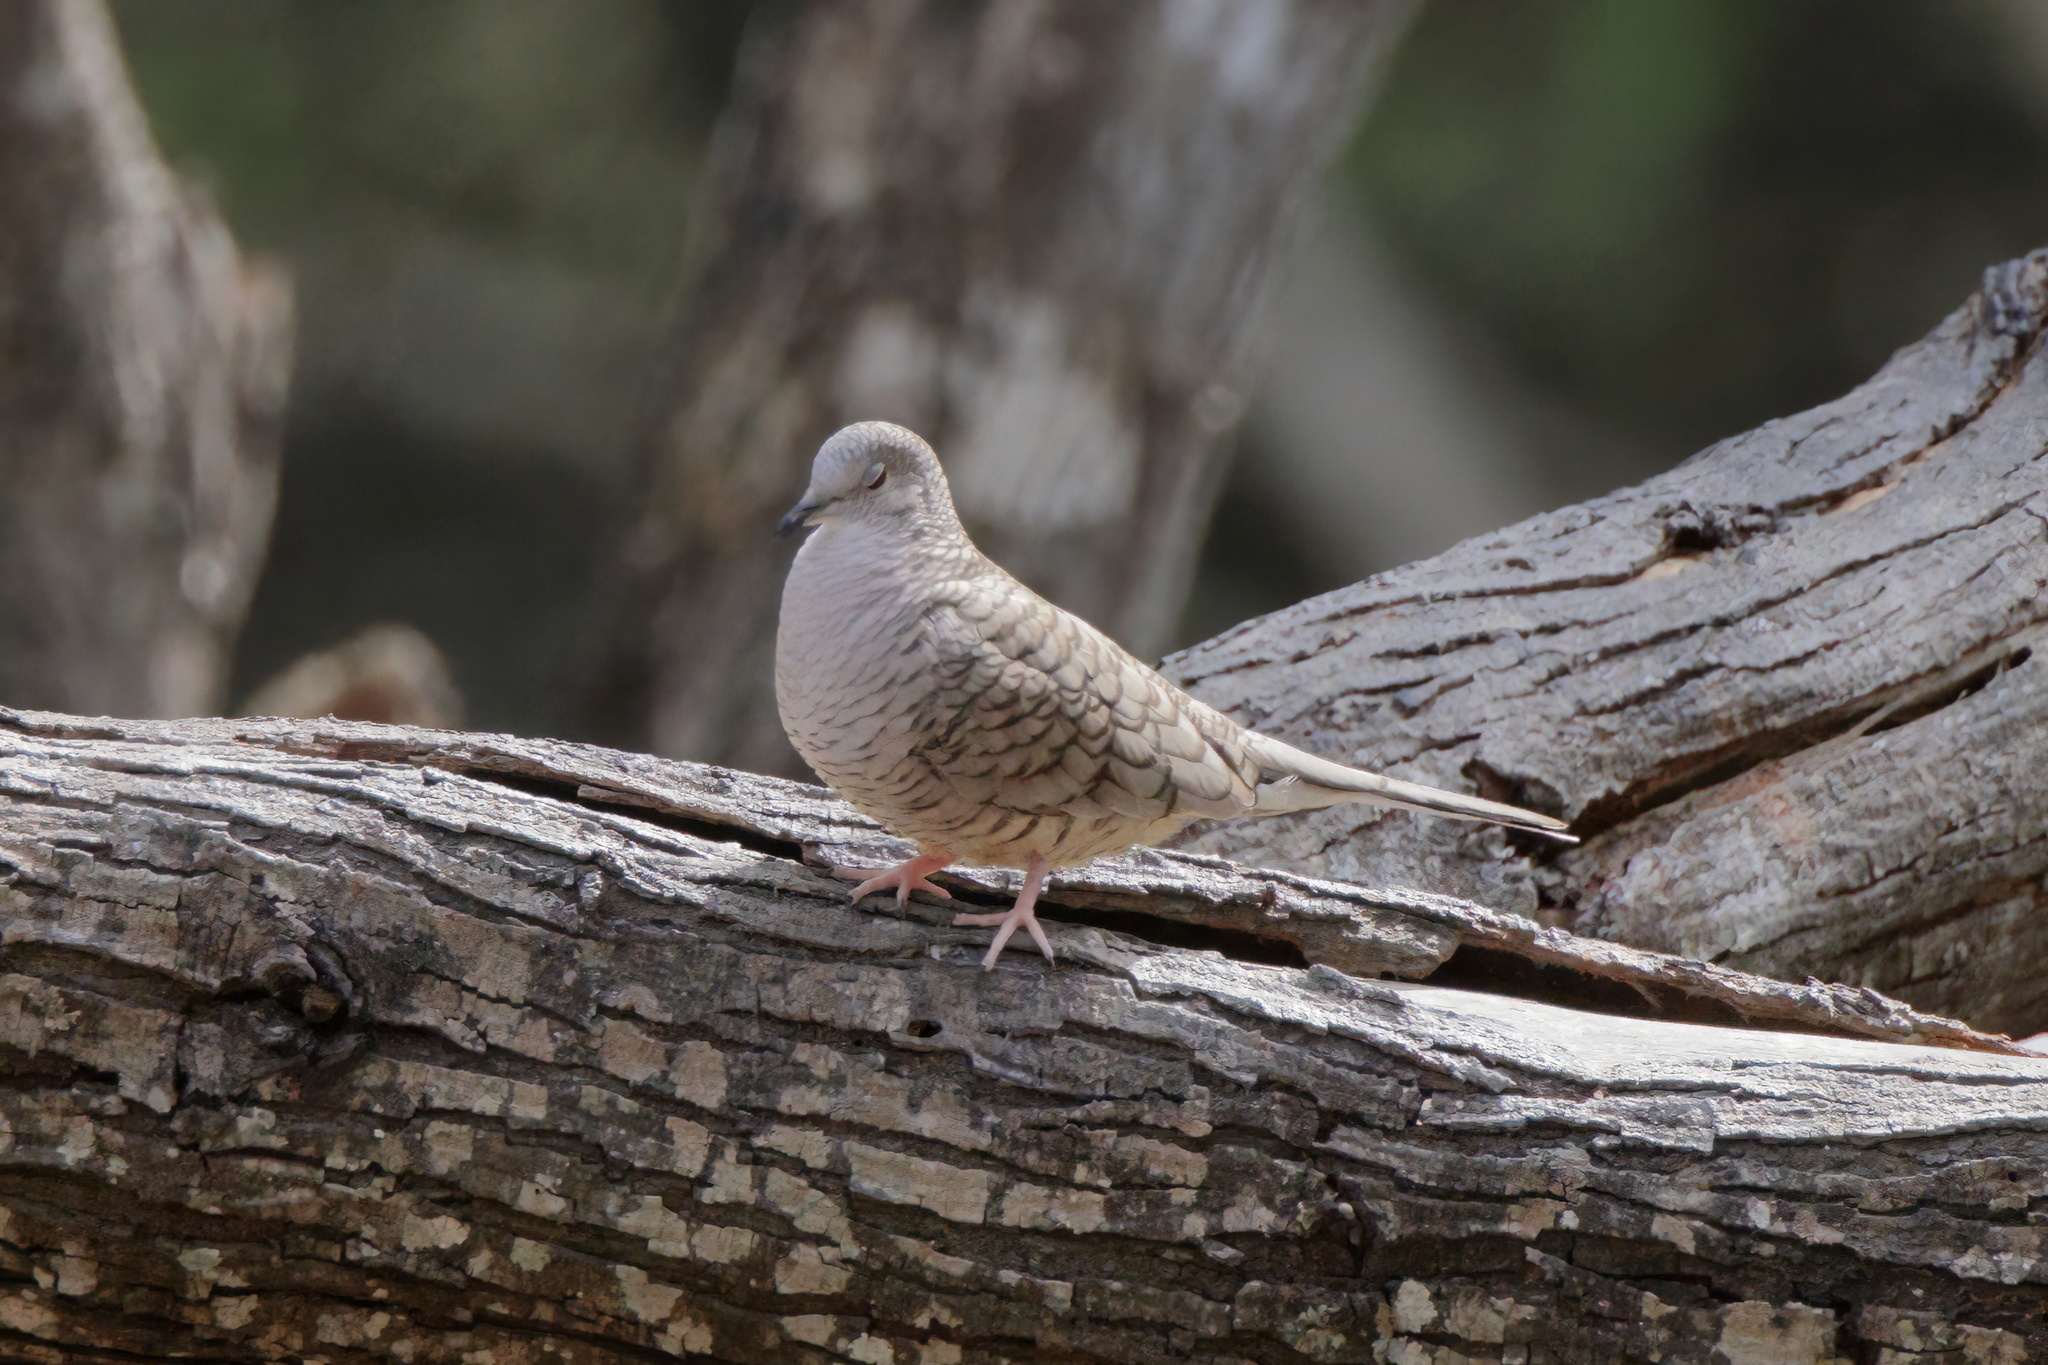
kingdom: Animalia
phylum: Chordata
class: Aves
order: Columbiformes
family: Columbidae
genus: Columbina
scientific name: Columbina inca
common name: Inca dove
